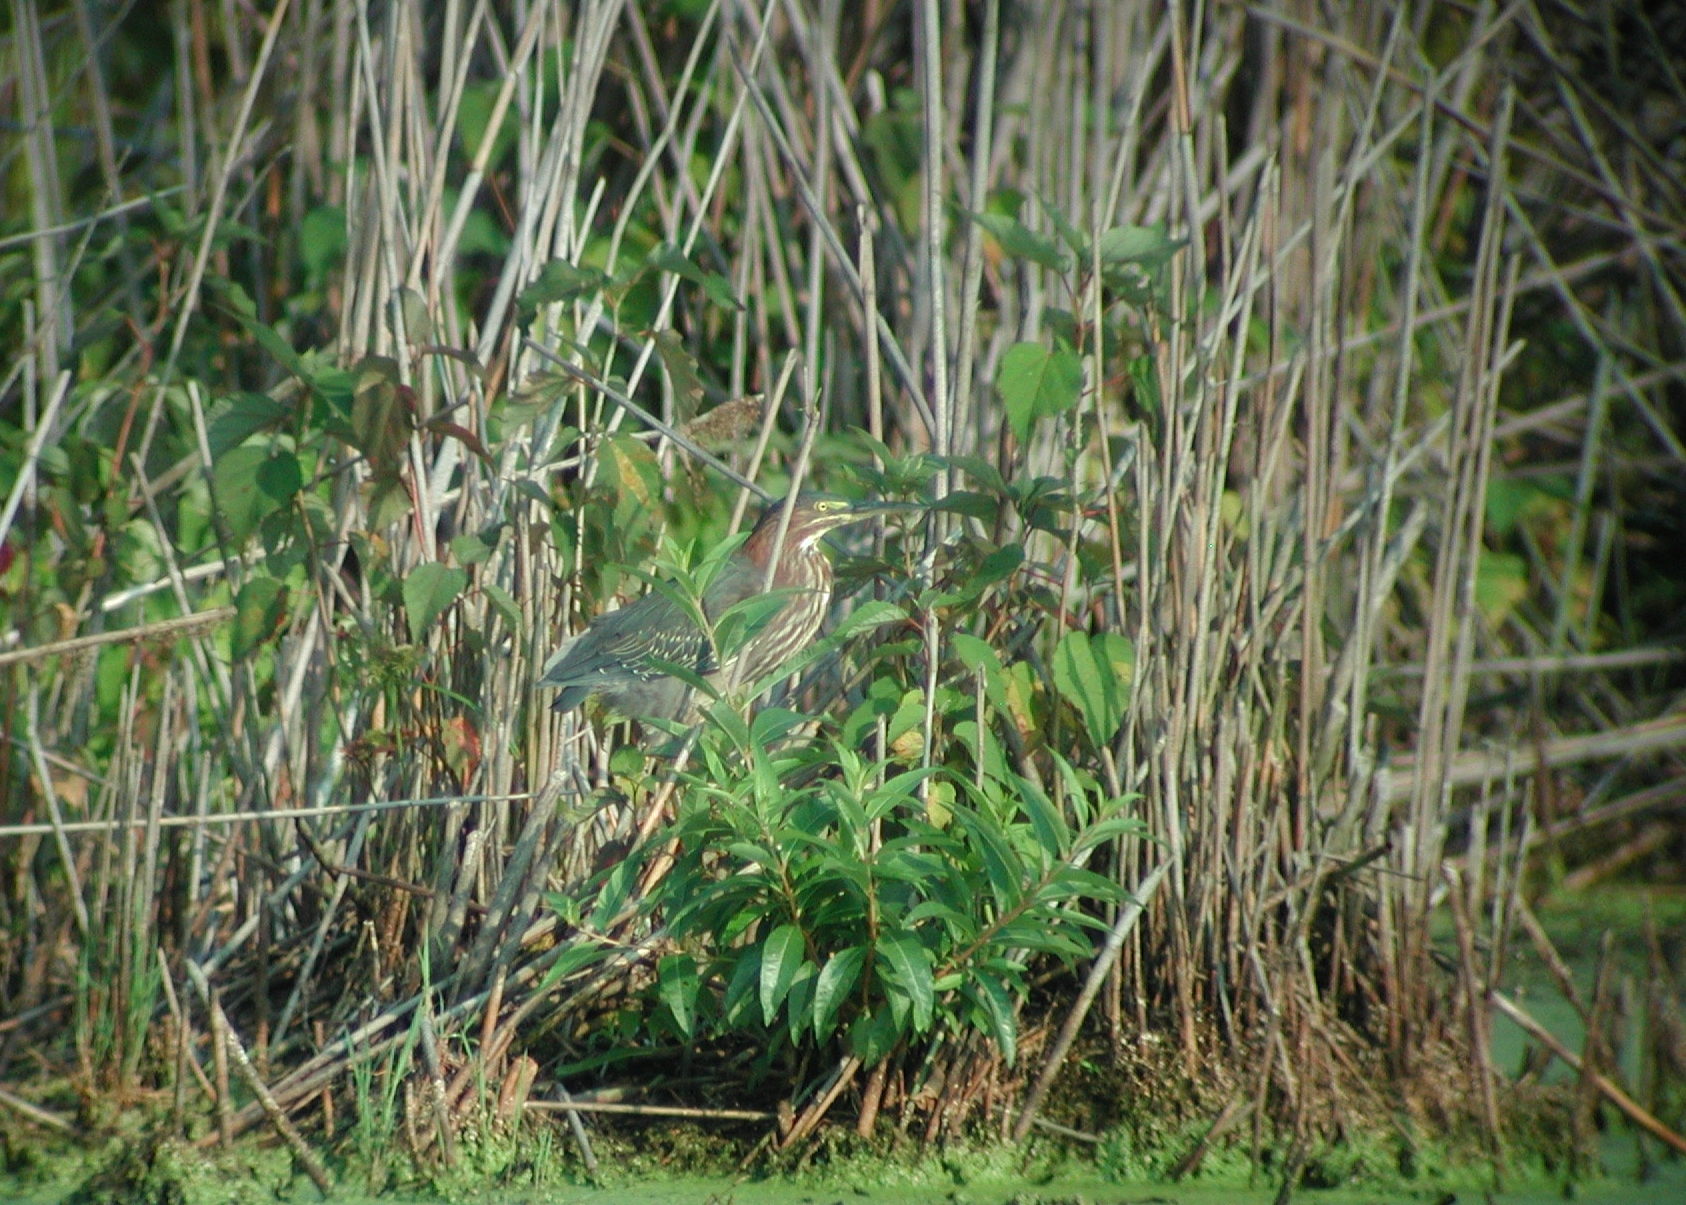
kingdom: Animalia
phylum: Chordata
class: Aves
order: Pelecaniformes
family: Ardeidae
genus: Butorides
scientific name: Butorides virescens
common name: Green heron
